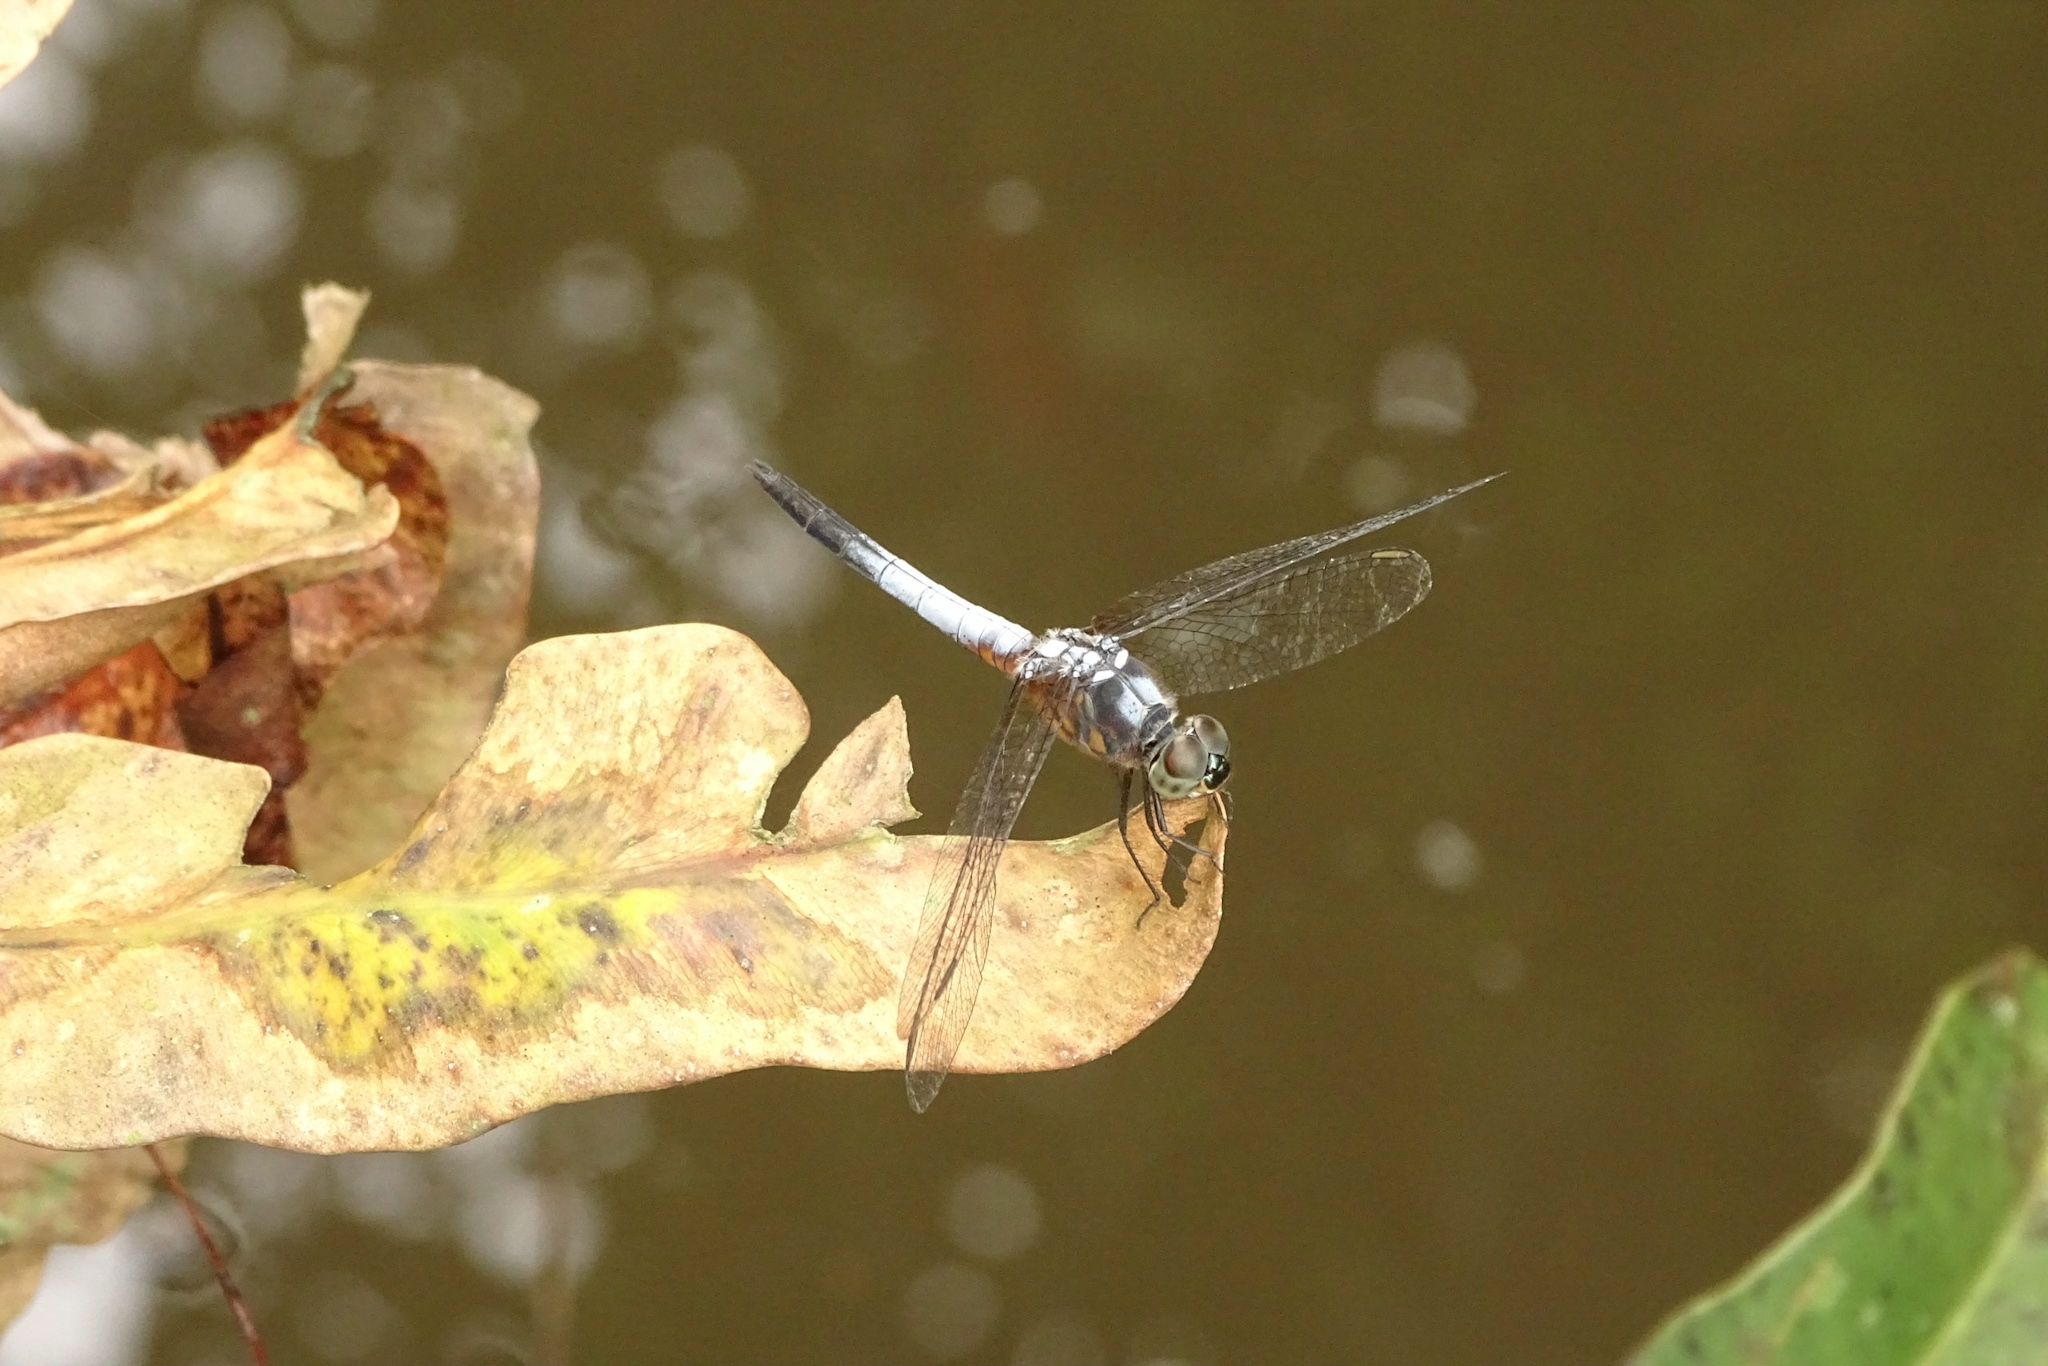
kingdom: Animalia
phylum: Arthropoda
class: Insecta
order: Odonata
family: Libellulidae
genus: Brachydiplax
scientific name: Brachydiplax chalybea
